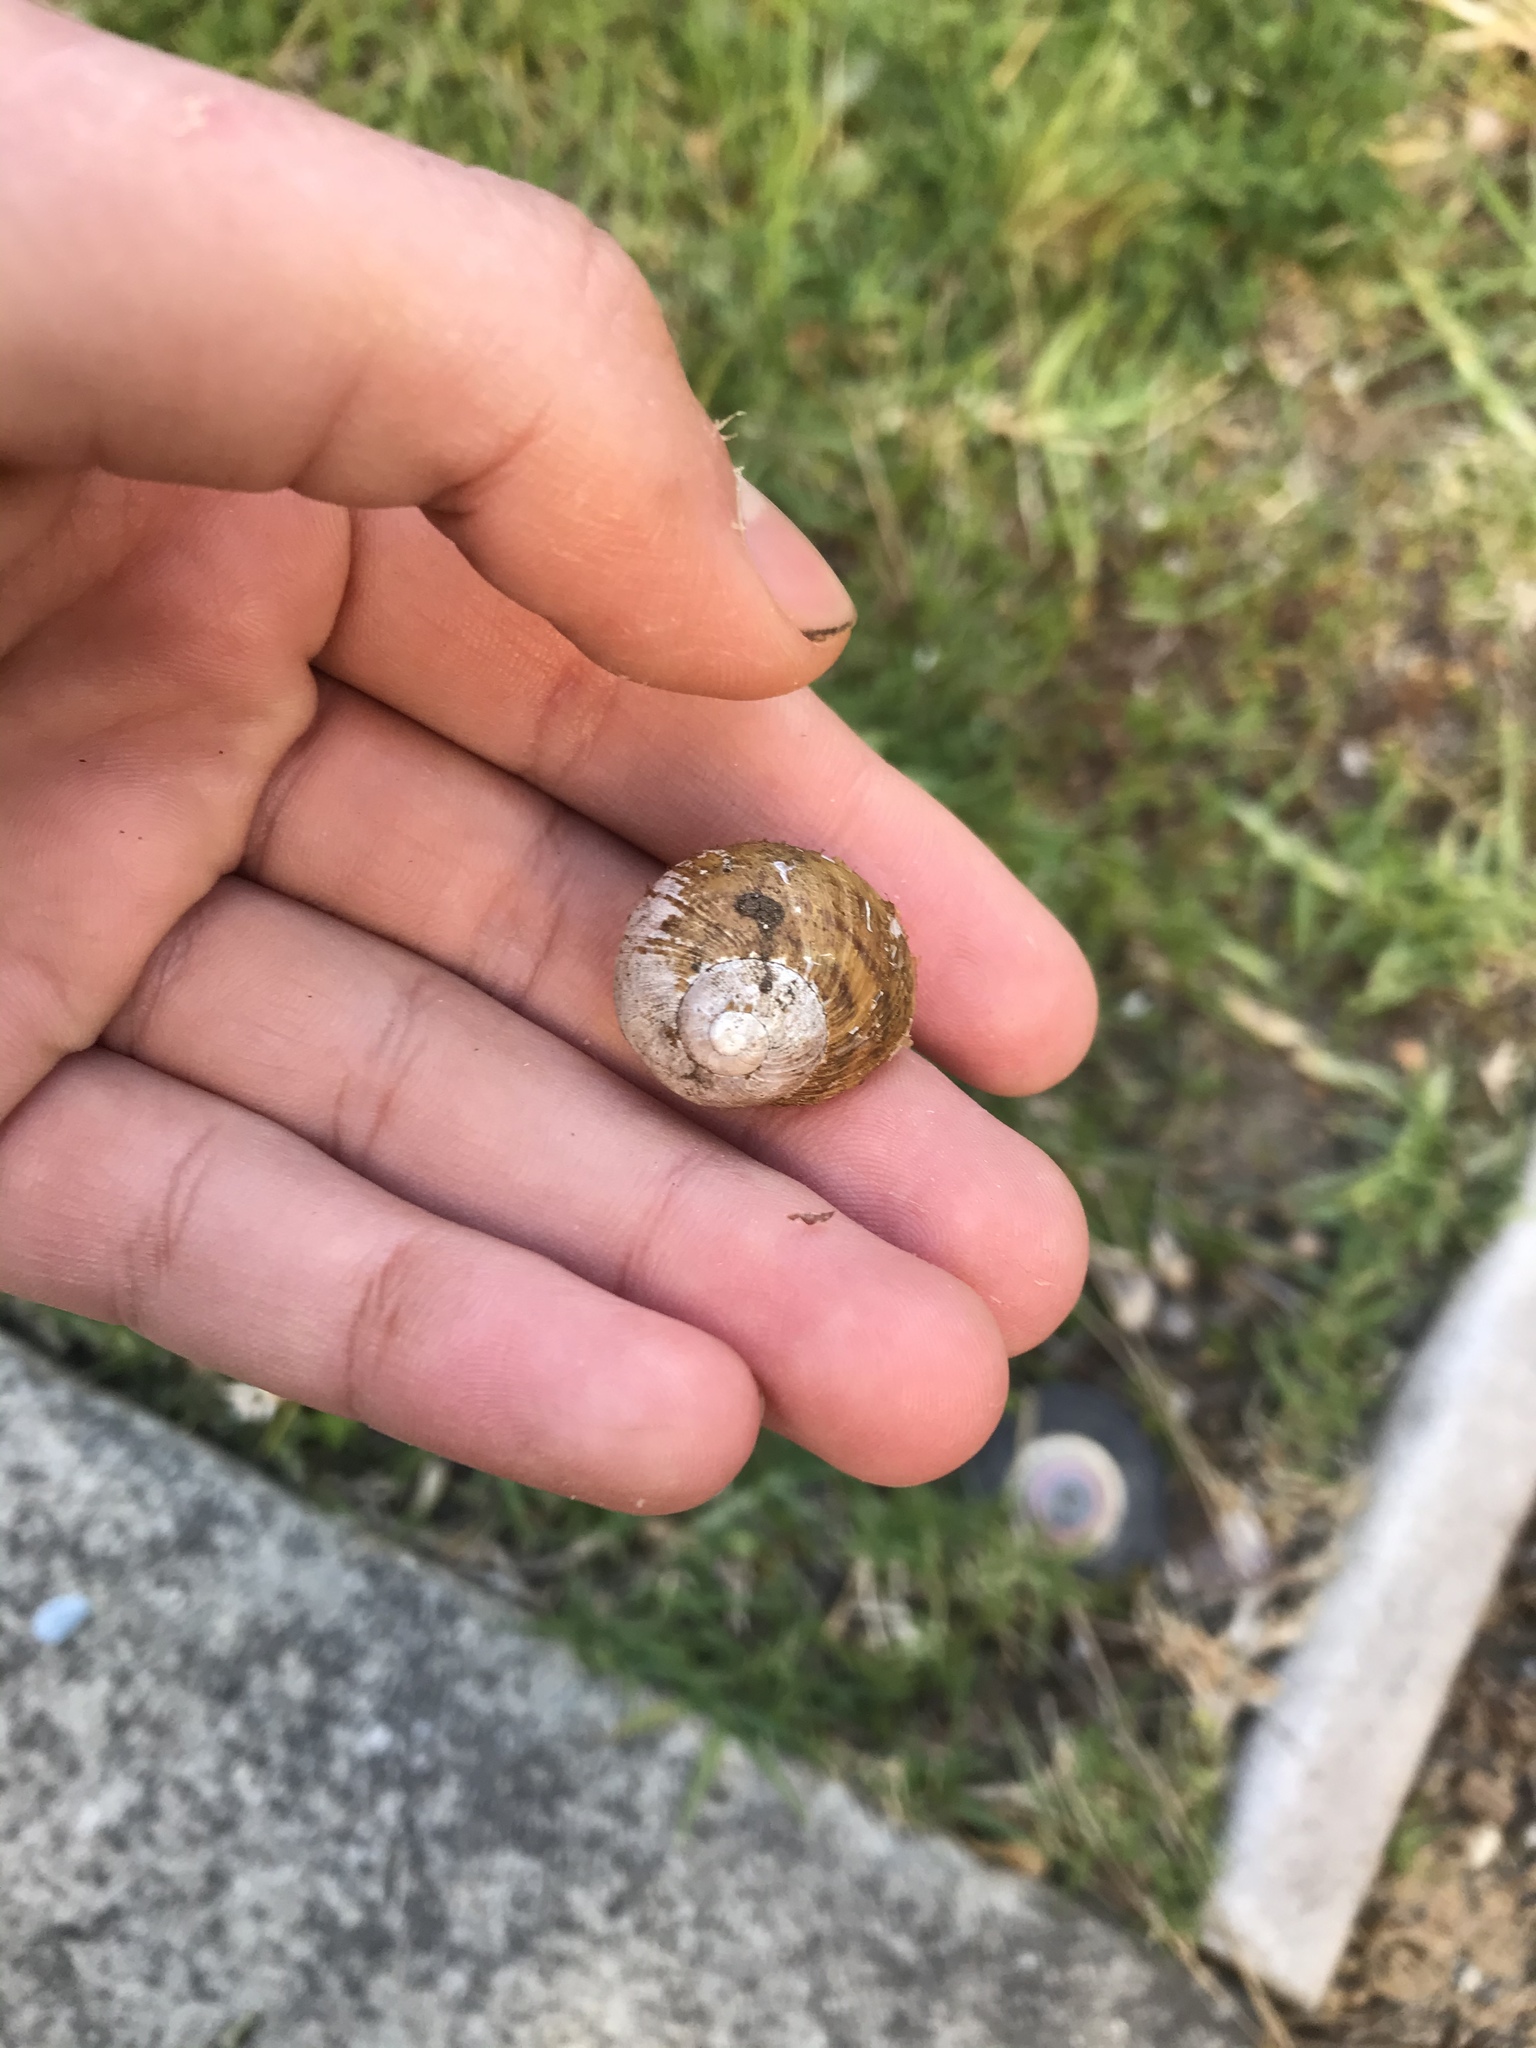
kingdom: Animalia
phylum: Mollusca
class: Gastropoda
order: Stylommatophora
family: Helicidae
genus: Cornu
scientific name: Cornu aspersum
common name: Brown garden snail
